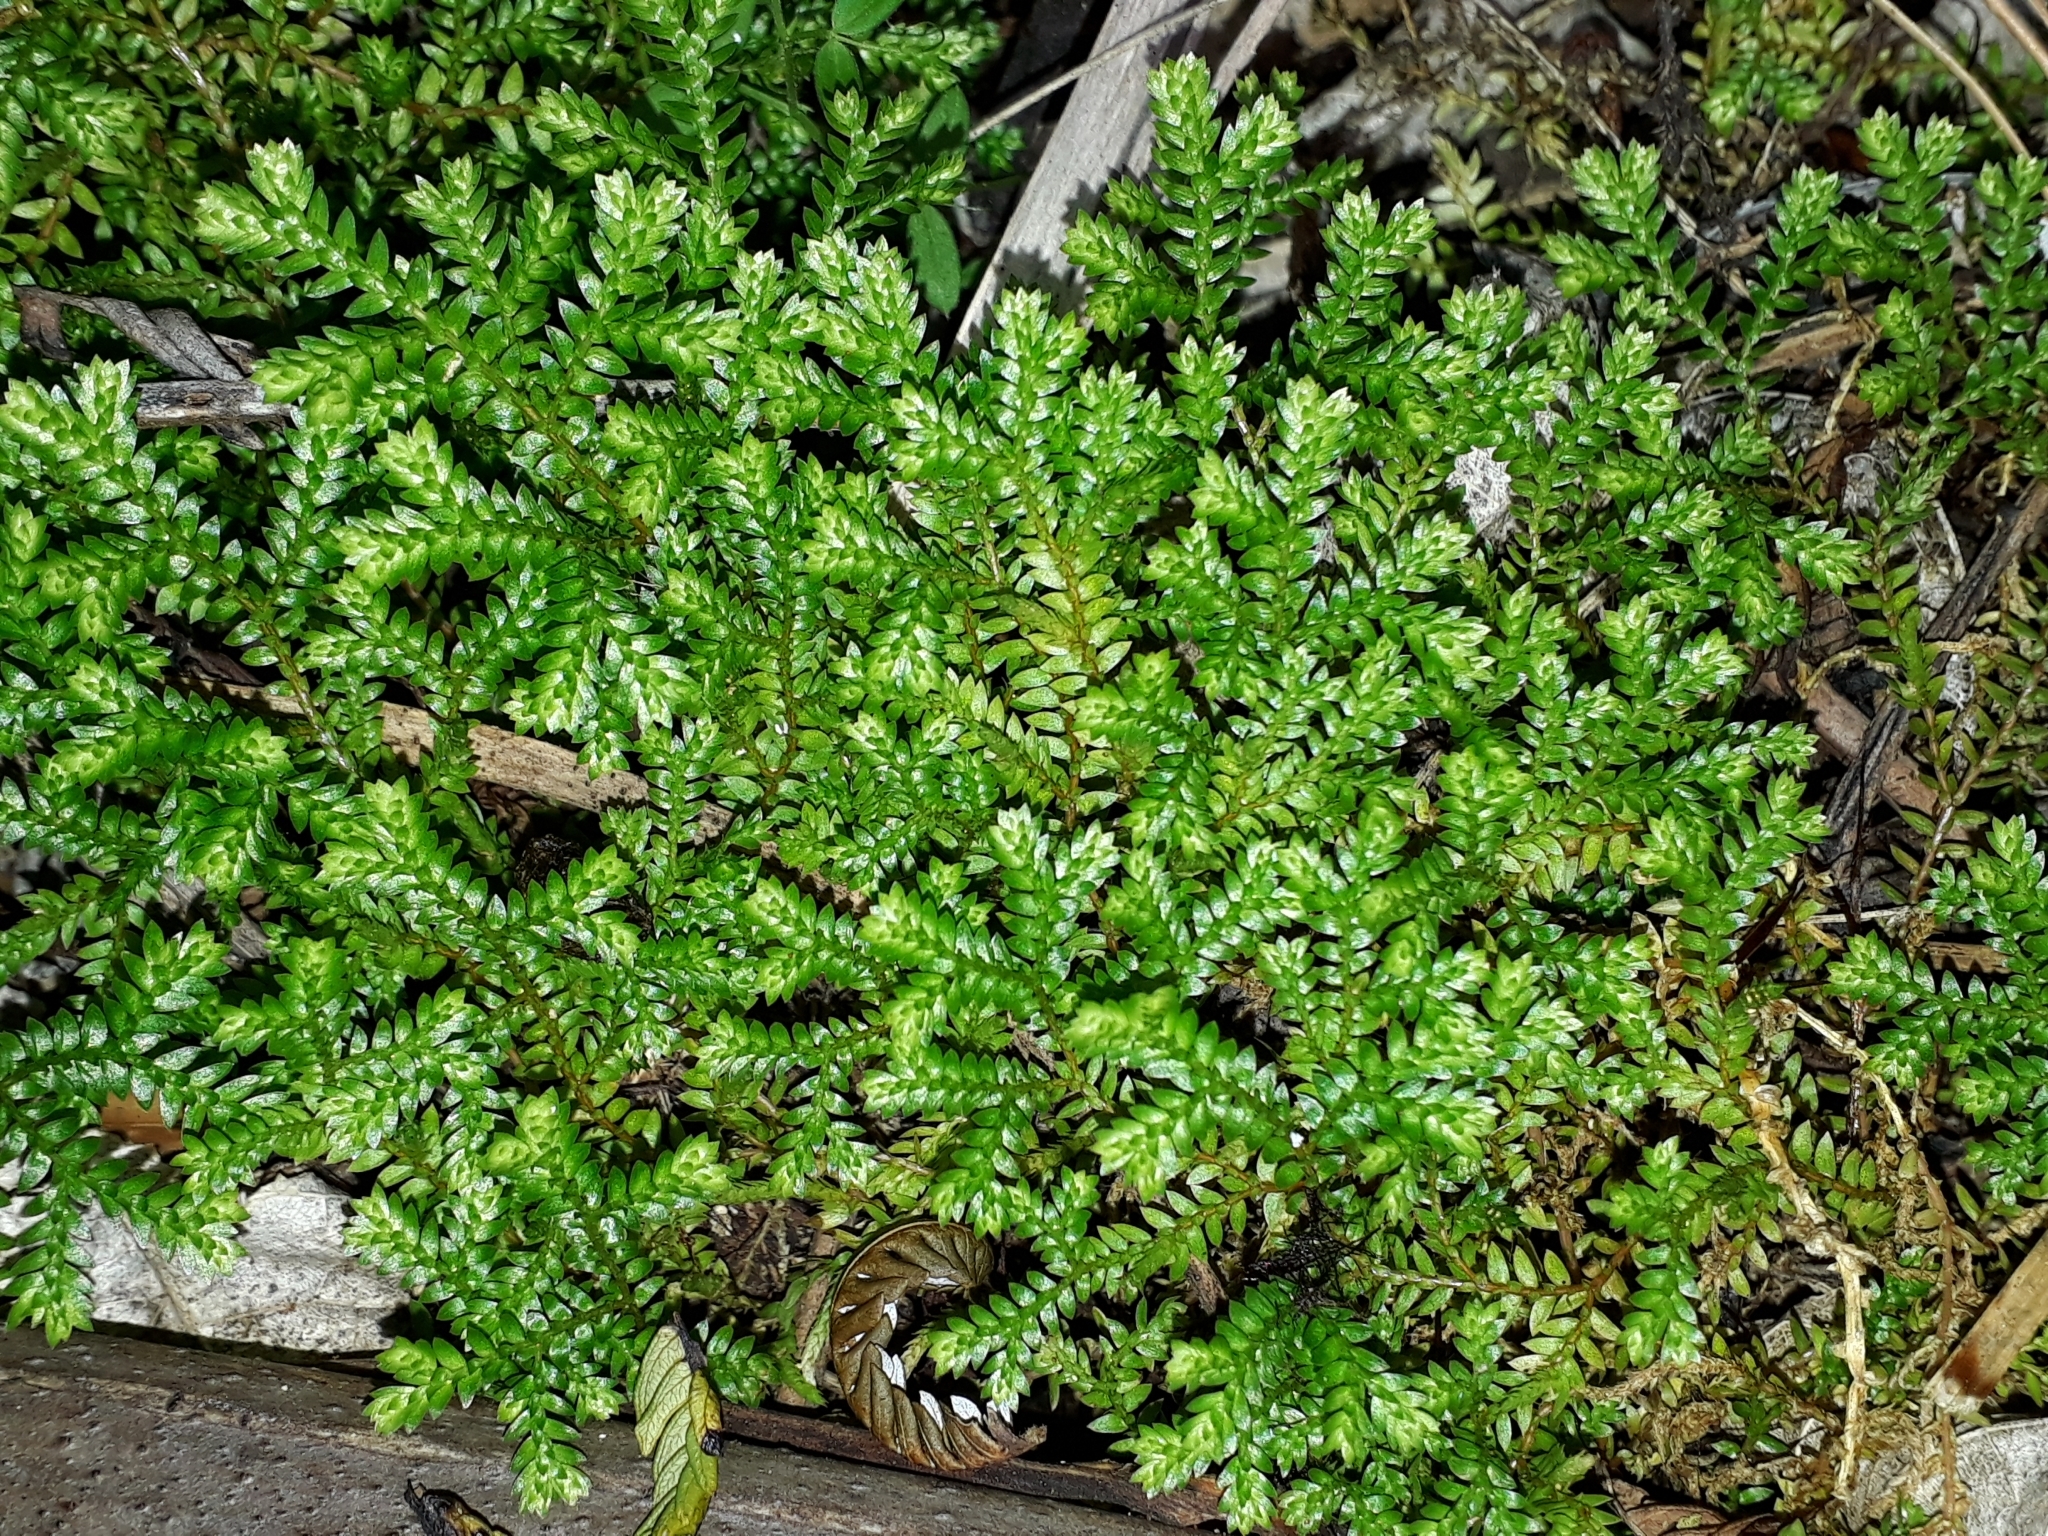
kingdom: Plantae
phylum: Tracheophyta
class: Lycopodiopsida
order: Selaginellales
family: Selaginellaceae
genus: Selaginella
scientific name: Selaginella kraussiana
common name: Krauss' spikemoss
